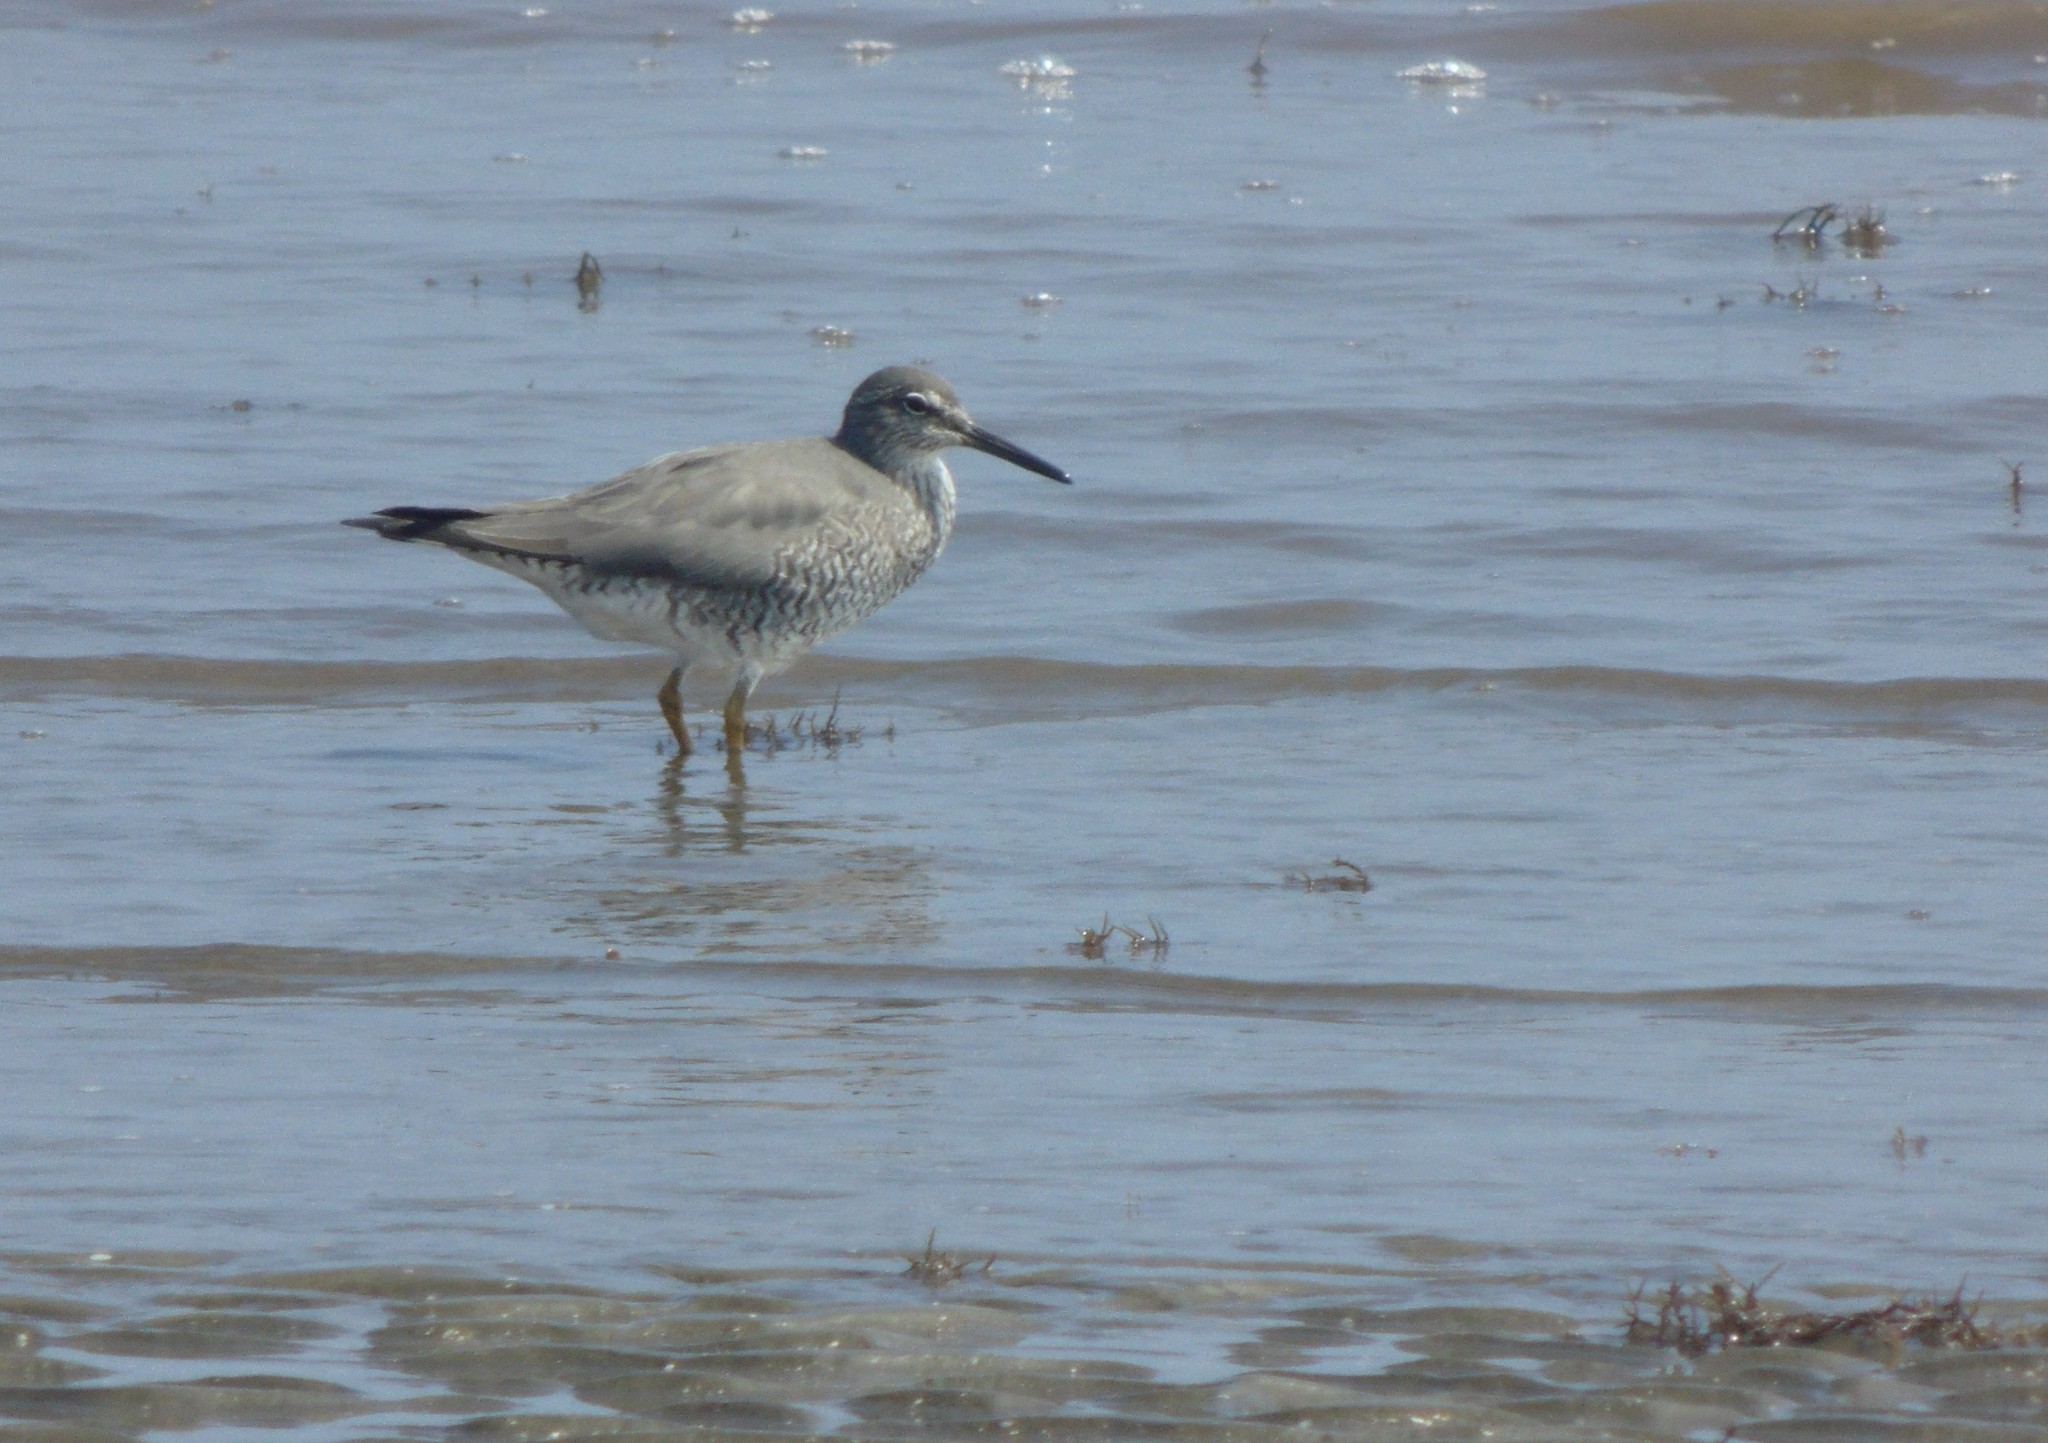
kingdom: Animalia
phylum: Chordata
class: Aves
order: Charadriiformes
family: Scolopacidae
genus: Tringa
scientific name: Tringa incana
